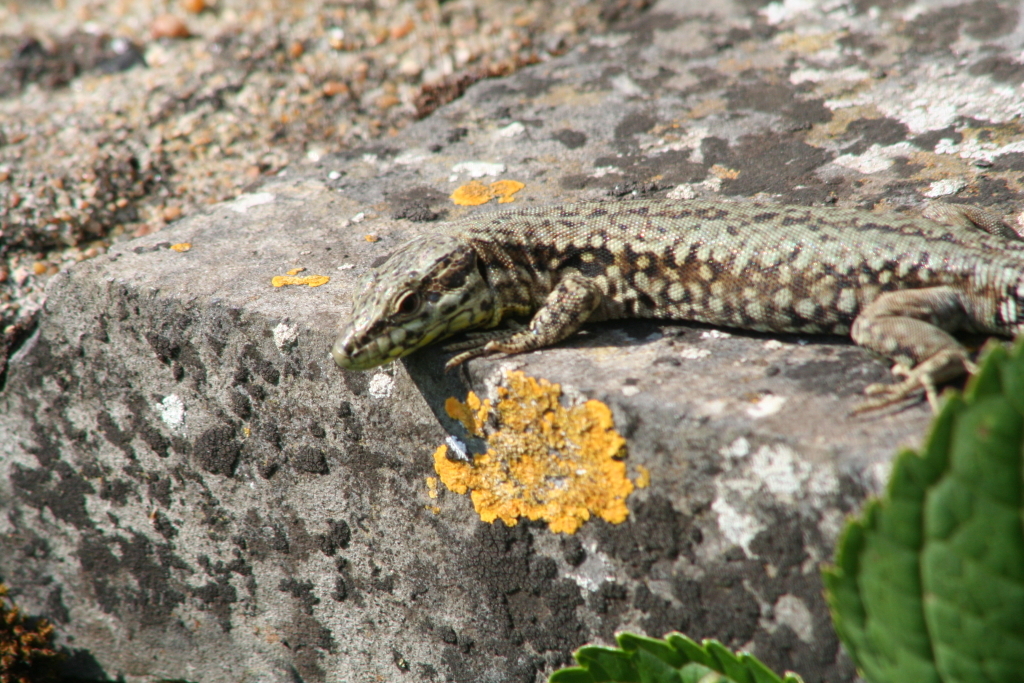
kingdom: Animalia
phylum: Chordata
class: Squamata
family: Lacertidae
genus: Podarcis
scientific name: Podarcis muralis
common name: Common wall lizard
